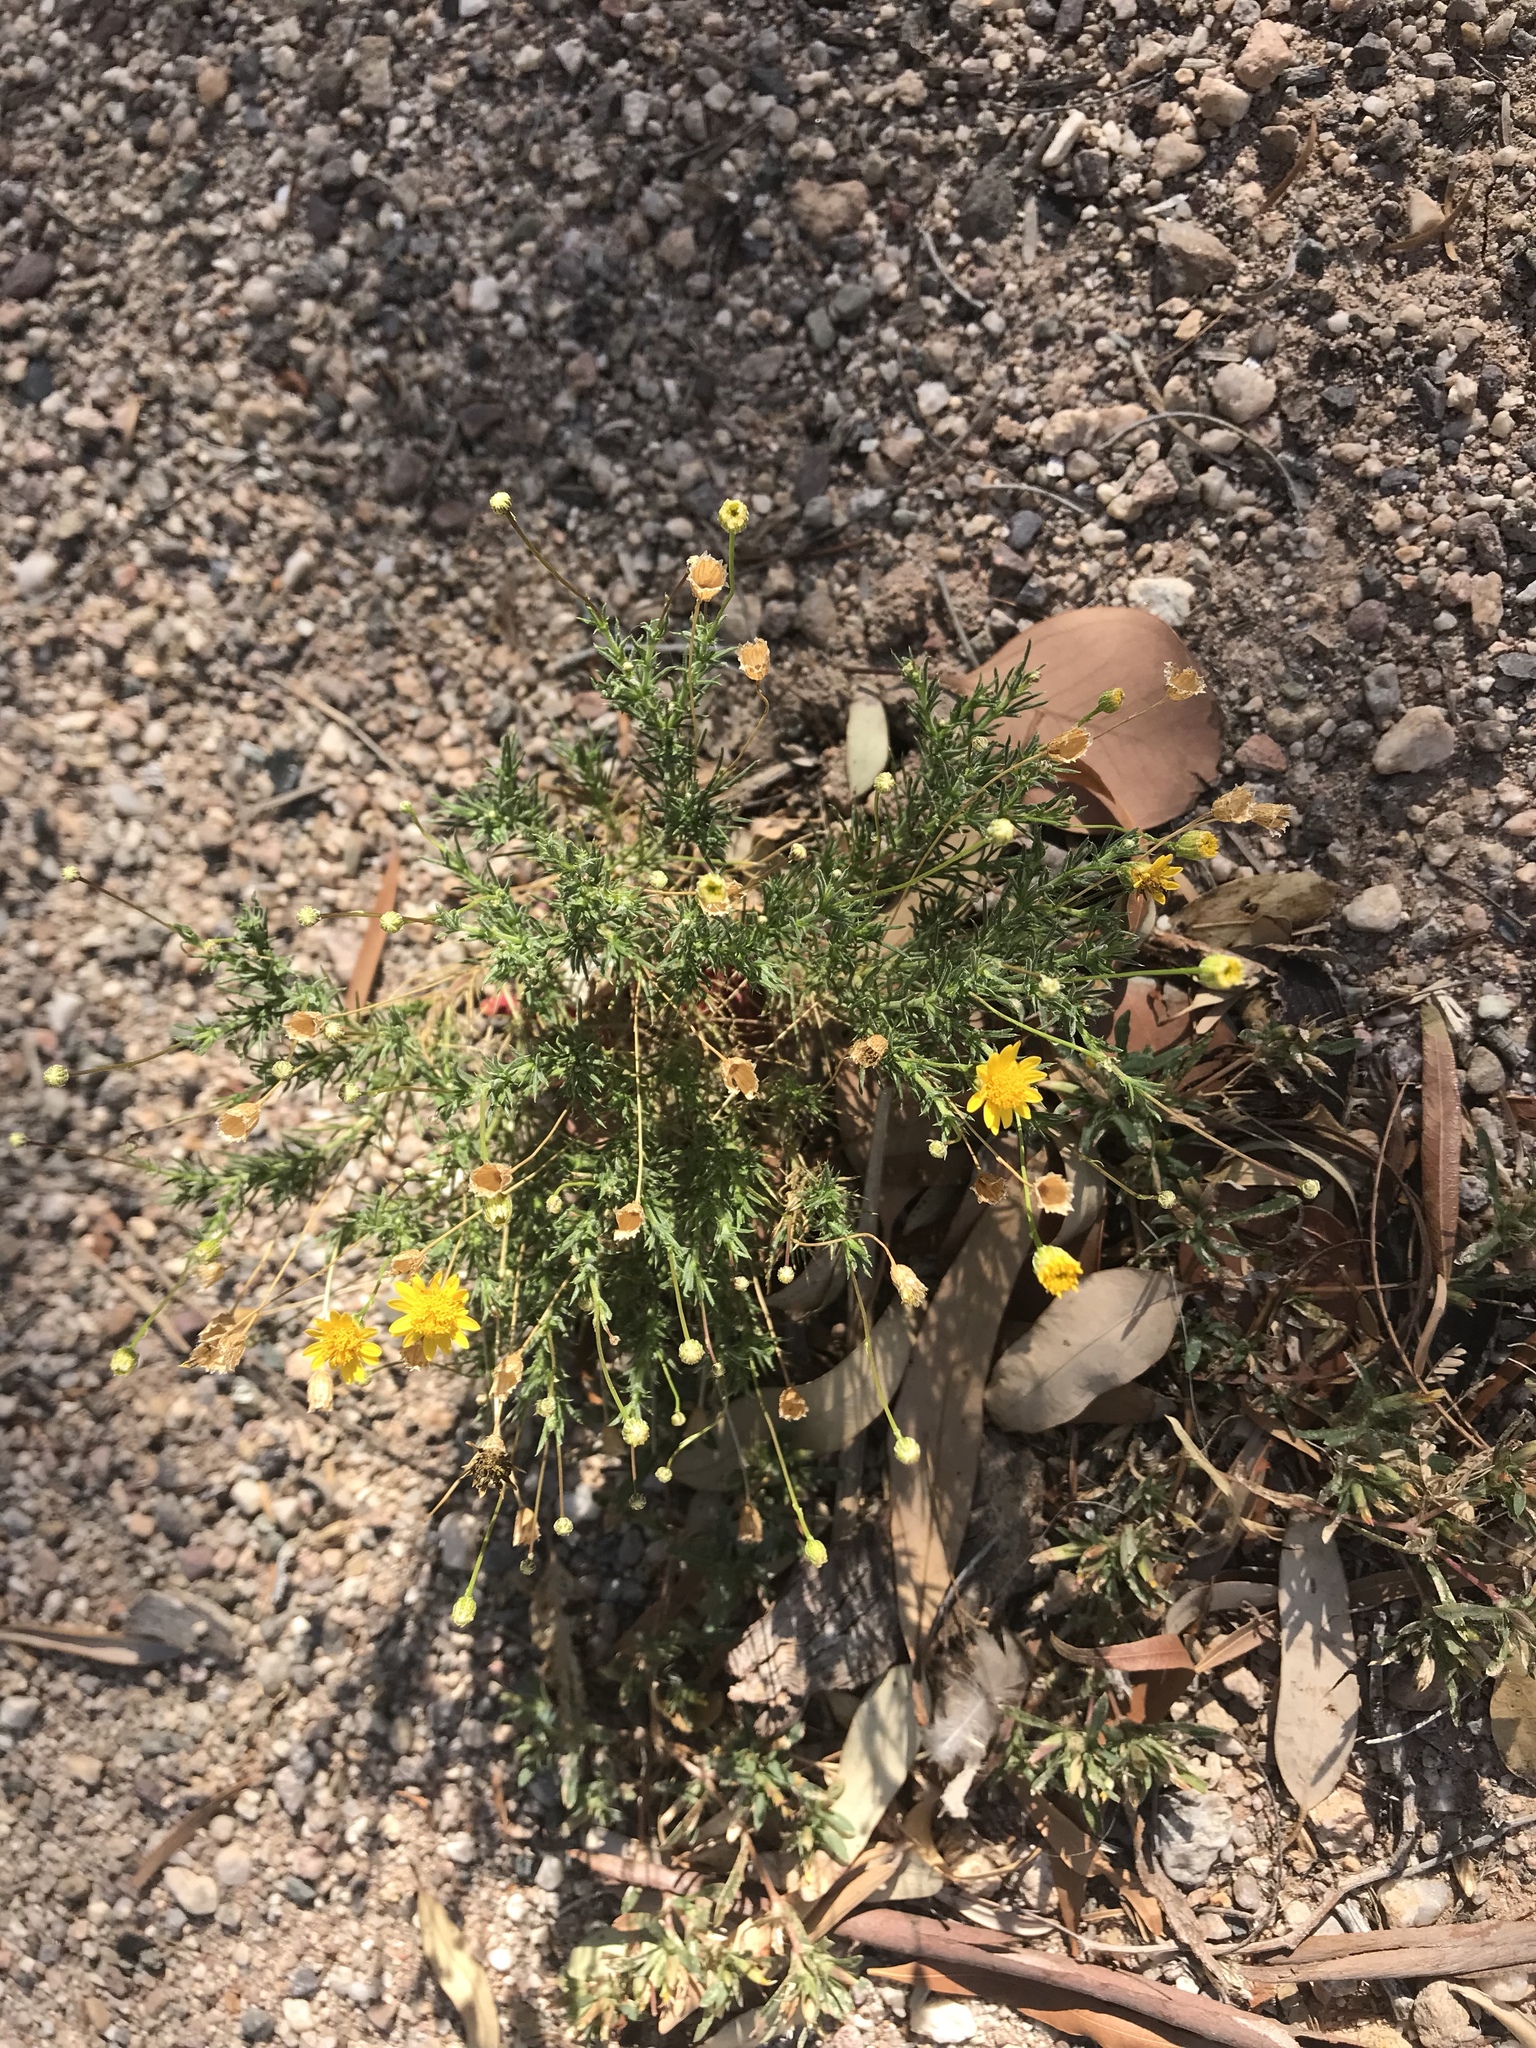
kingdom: Plantae
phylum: Tracheophyta
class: Magnoliopsida
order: Asterales
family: Asteraceae
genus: Pectis
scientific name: Pectis papposa
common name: Many-bristle chinchweed
